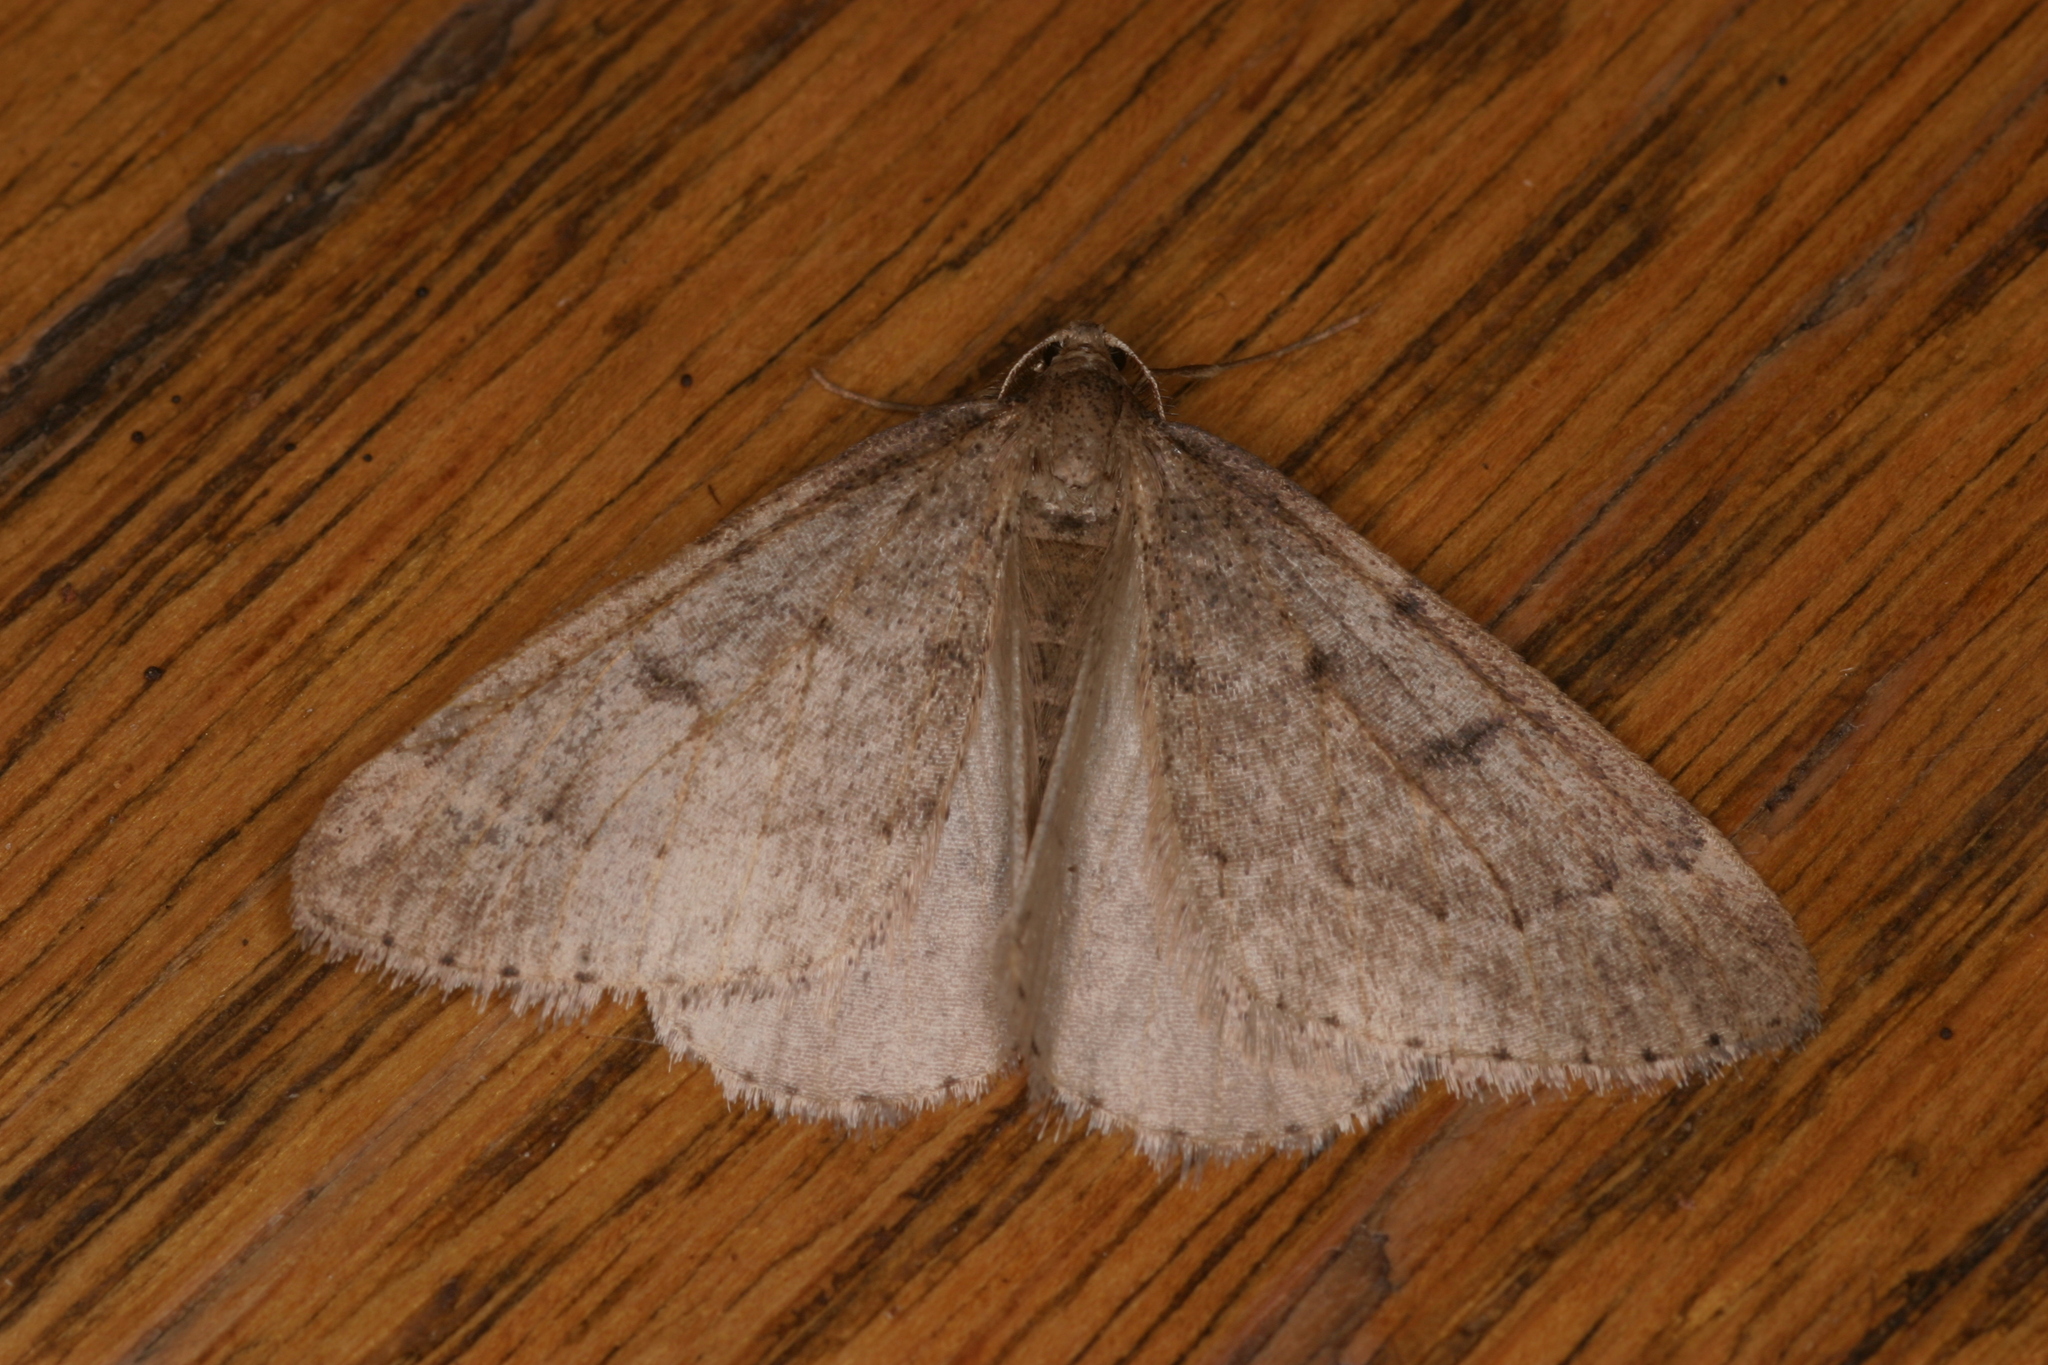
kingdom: Animalia
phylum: Arthropoda
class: Insecta
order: Lepidoptera
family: Geometridae
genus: Theria
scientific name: Theria rupicapraria
